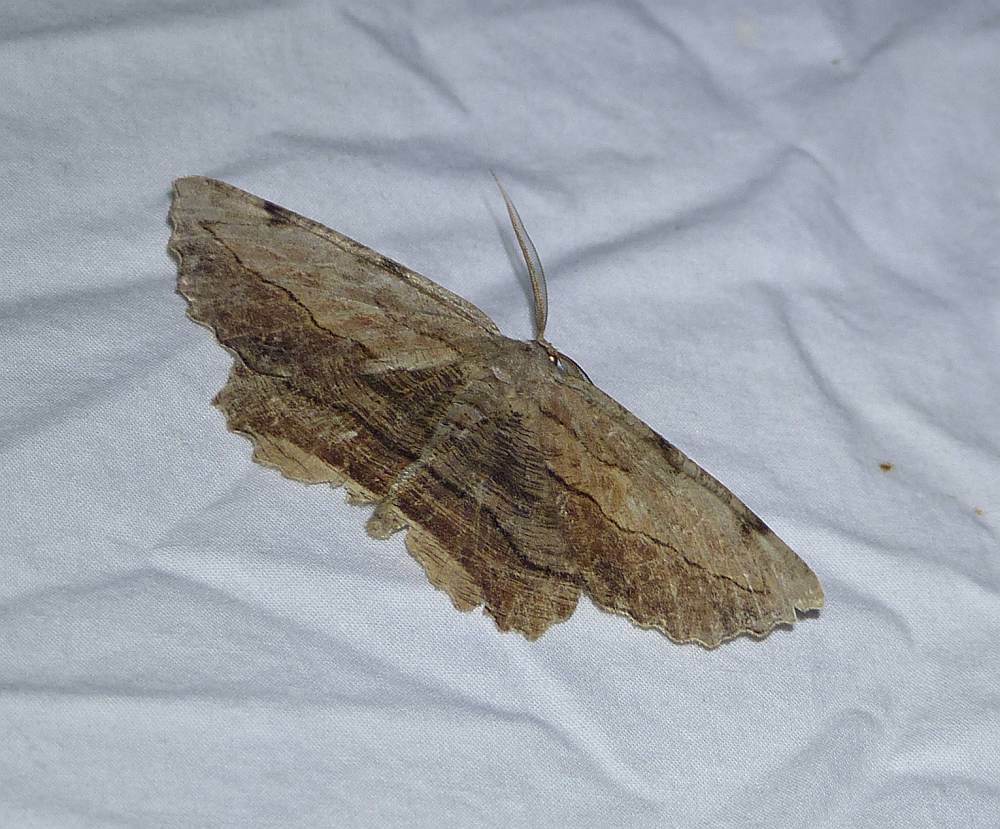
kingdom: Animalia
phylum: Arthropoda
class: Insecta
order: Lepidoptera
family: Geometridae
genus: Lytrosis
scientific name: Lytrosis unitaria
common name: Common lytrosis
